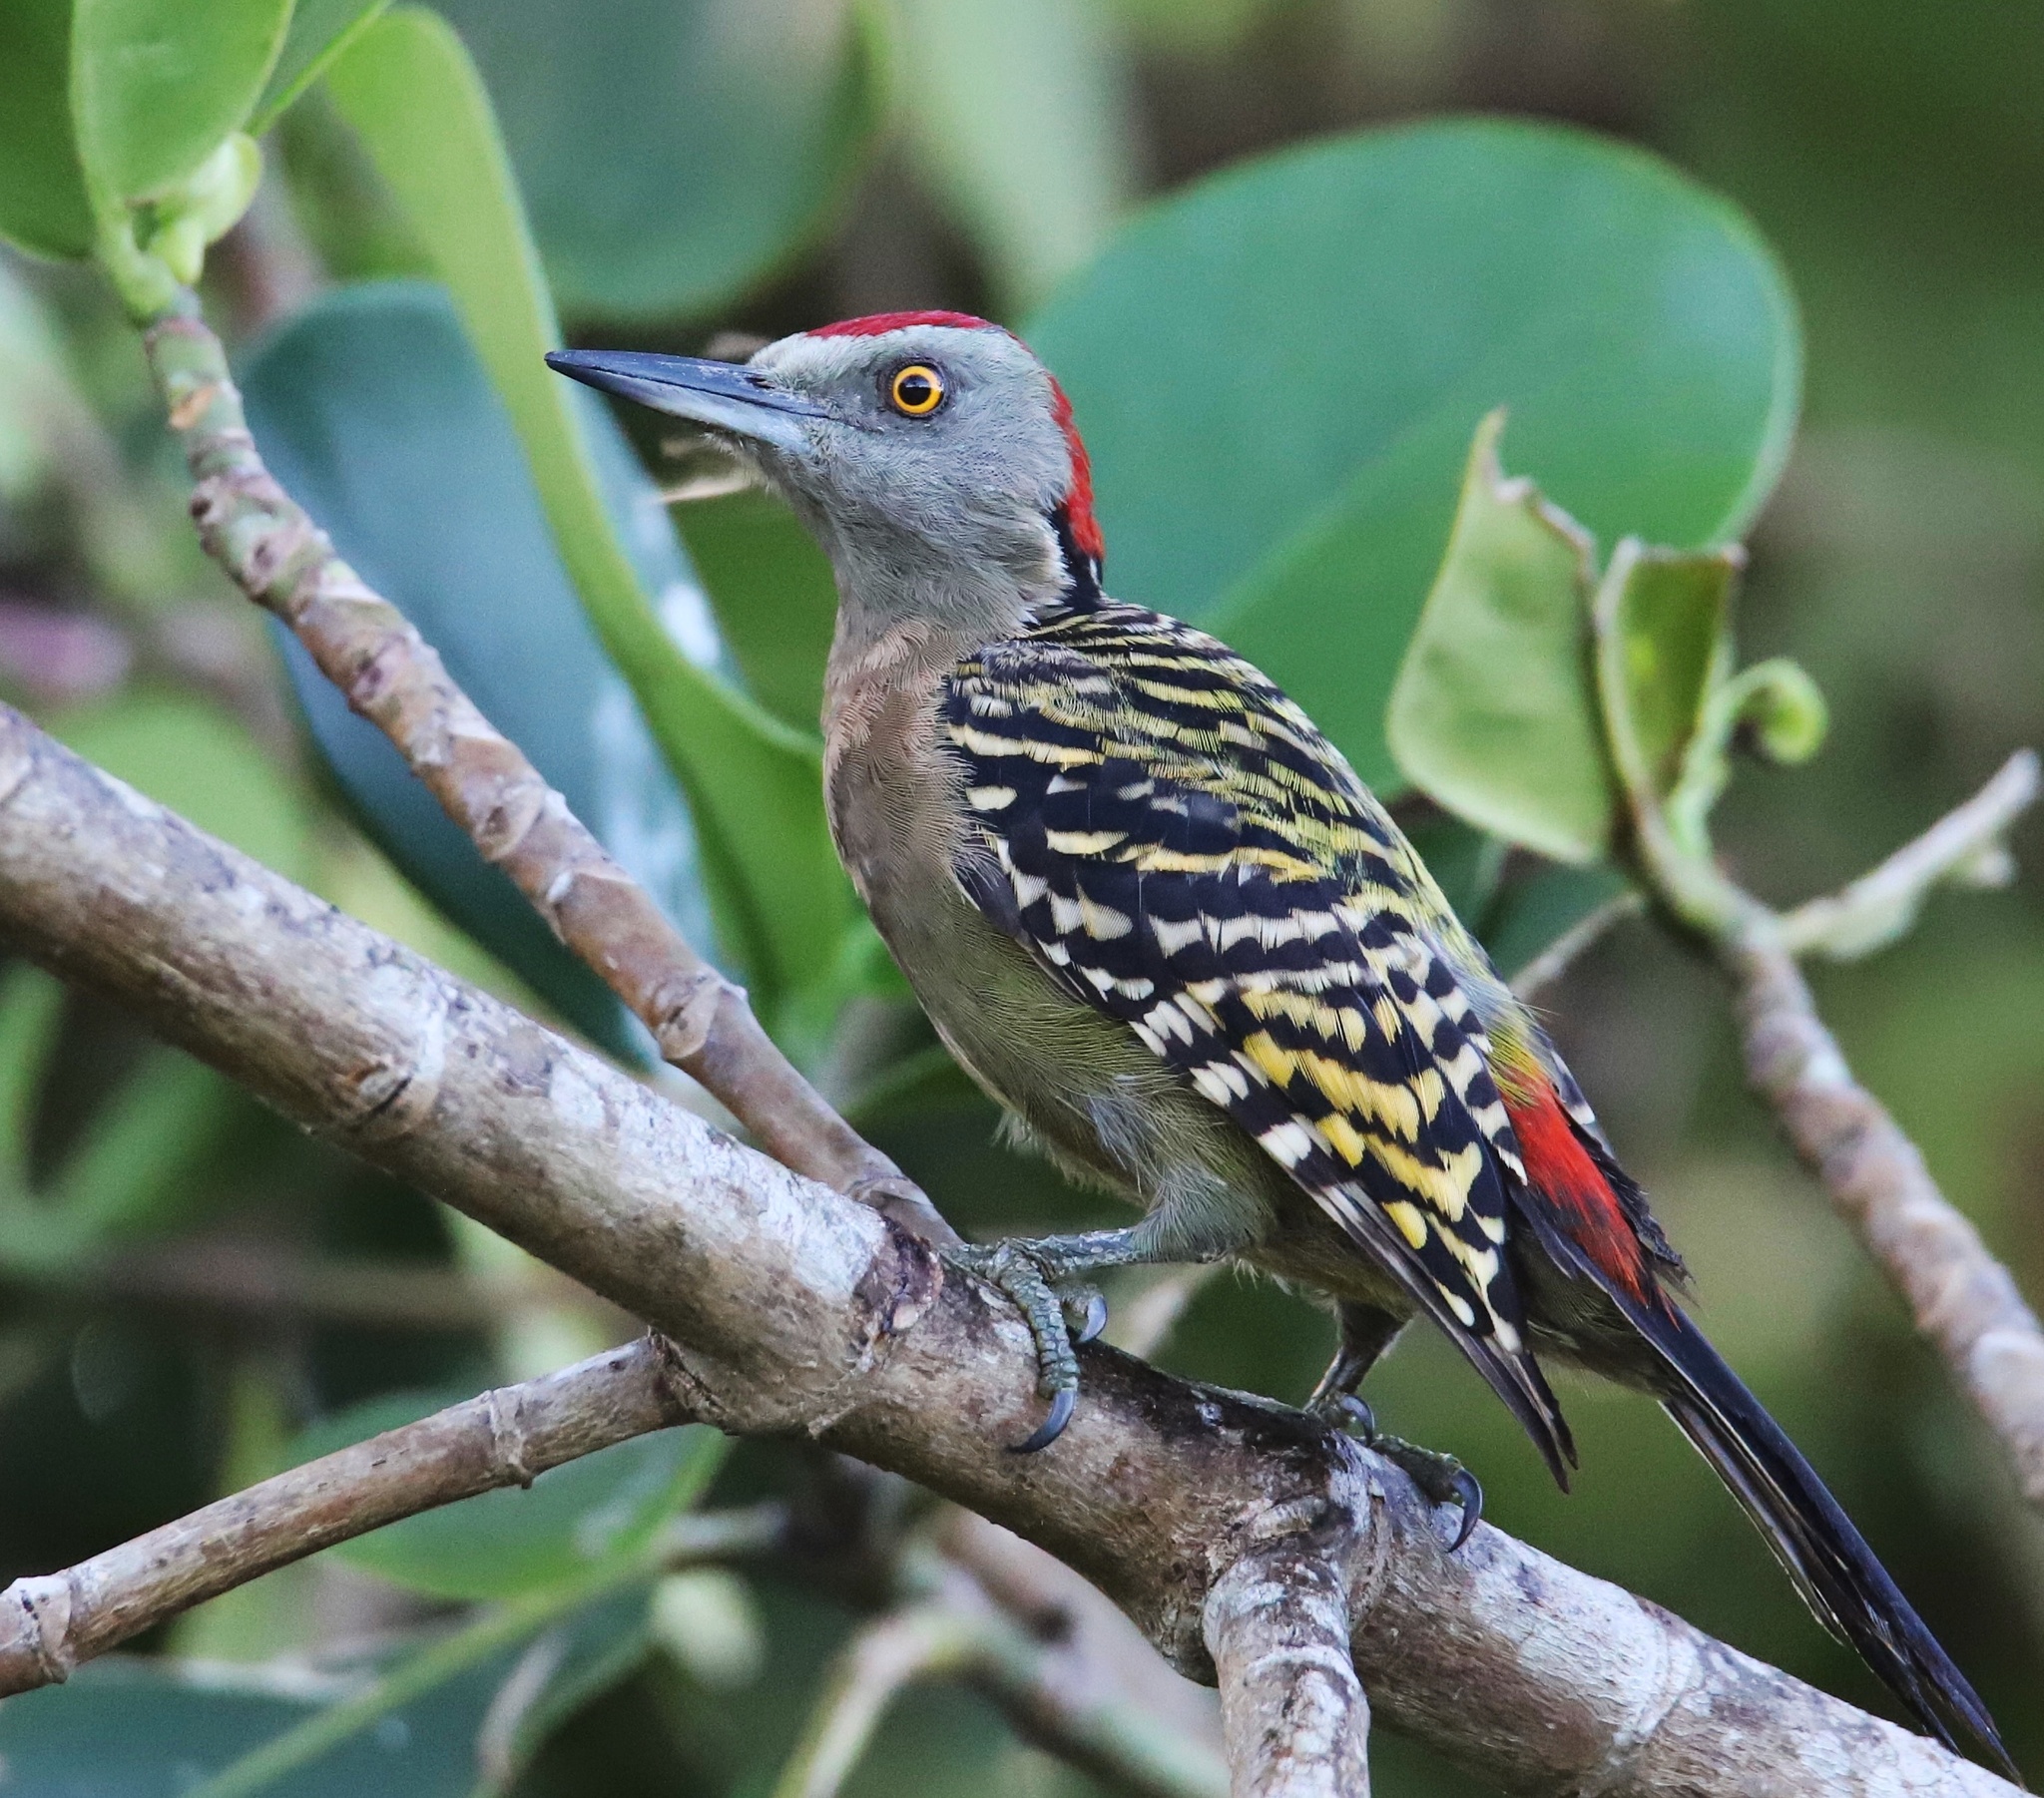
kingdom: Animalia
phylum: Chordata
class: Aves
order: Piciformes
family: Picidae
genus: Melanerpes
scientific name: Melanerpes striatus
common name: Hispaniolan woodpecker
